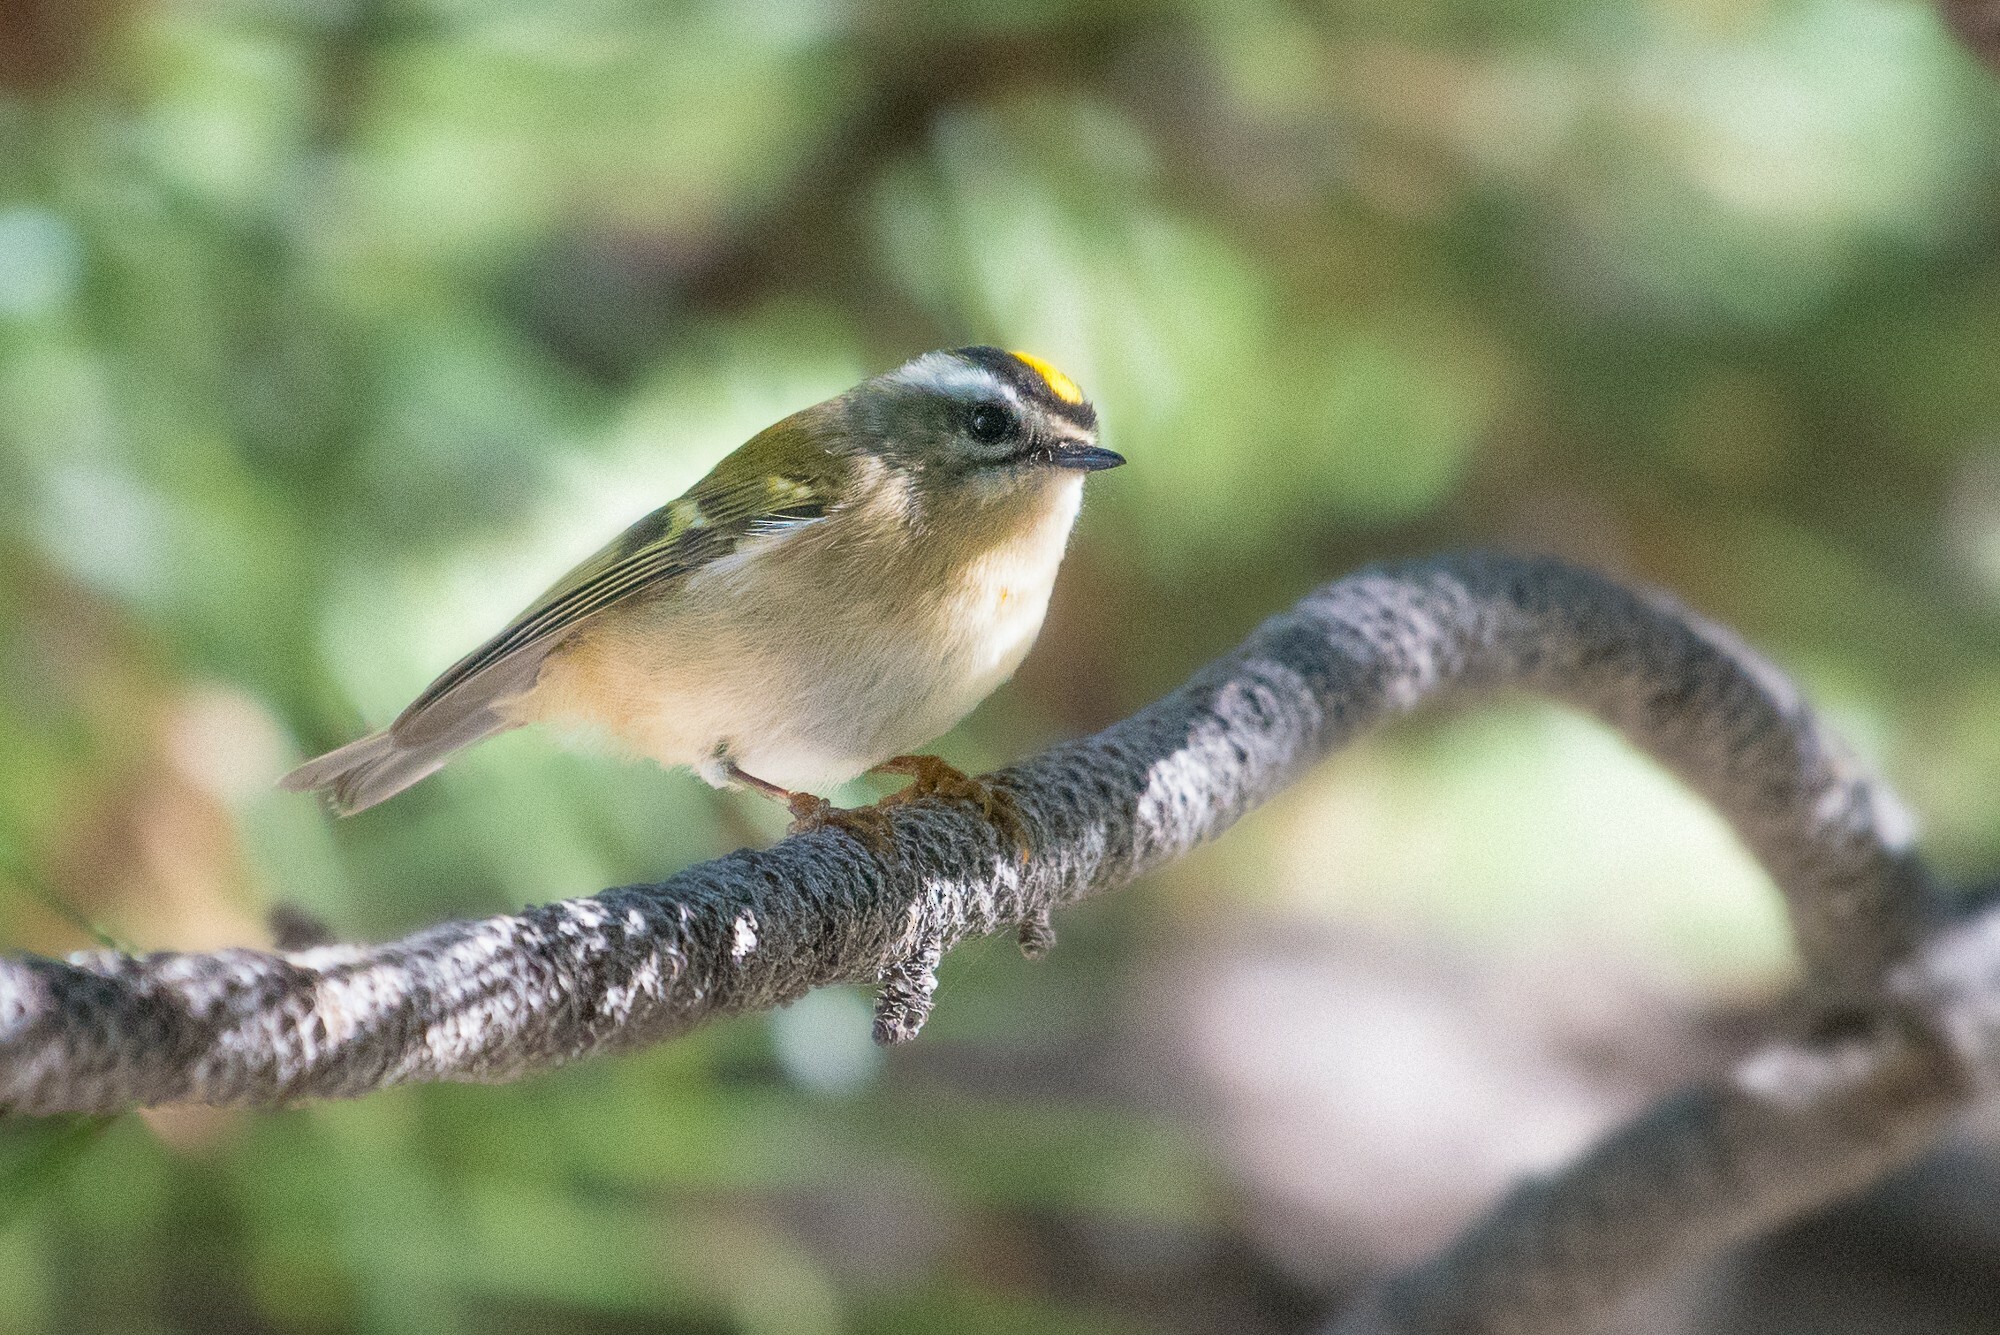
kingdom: Animalia
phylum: Chordata
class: Aves
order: Passeriformes
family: Regulidae
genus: Regulus
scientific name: Regulus satrapa
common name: Golden-crowned kinglet
